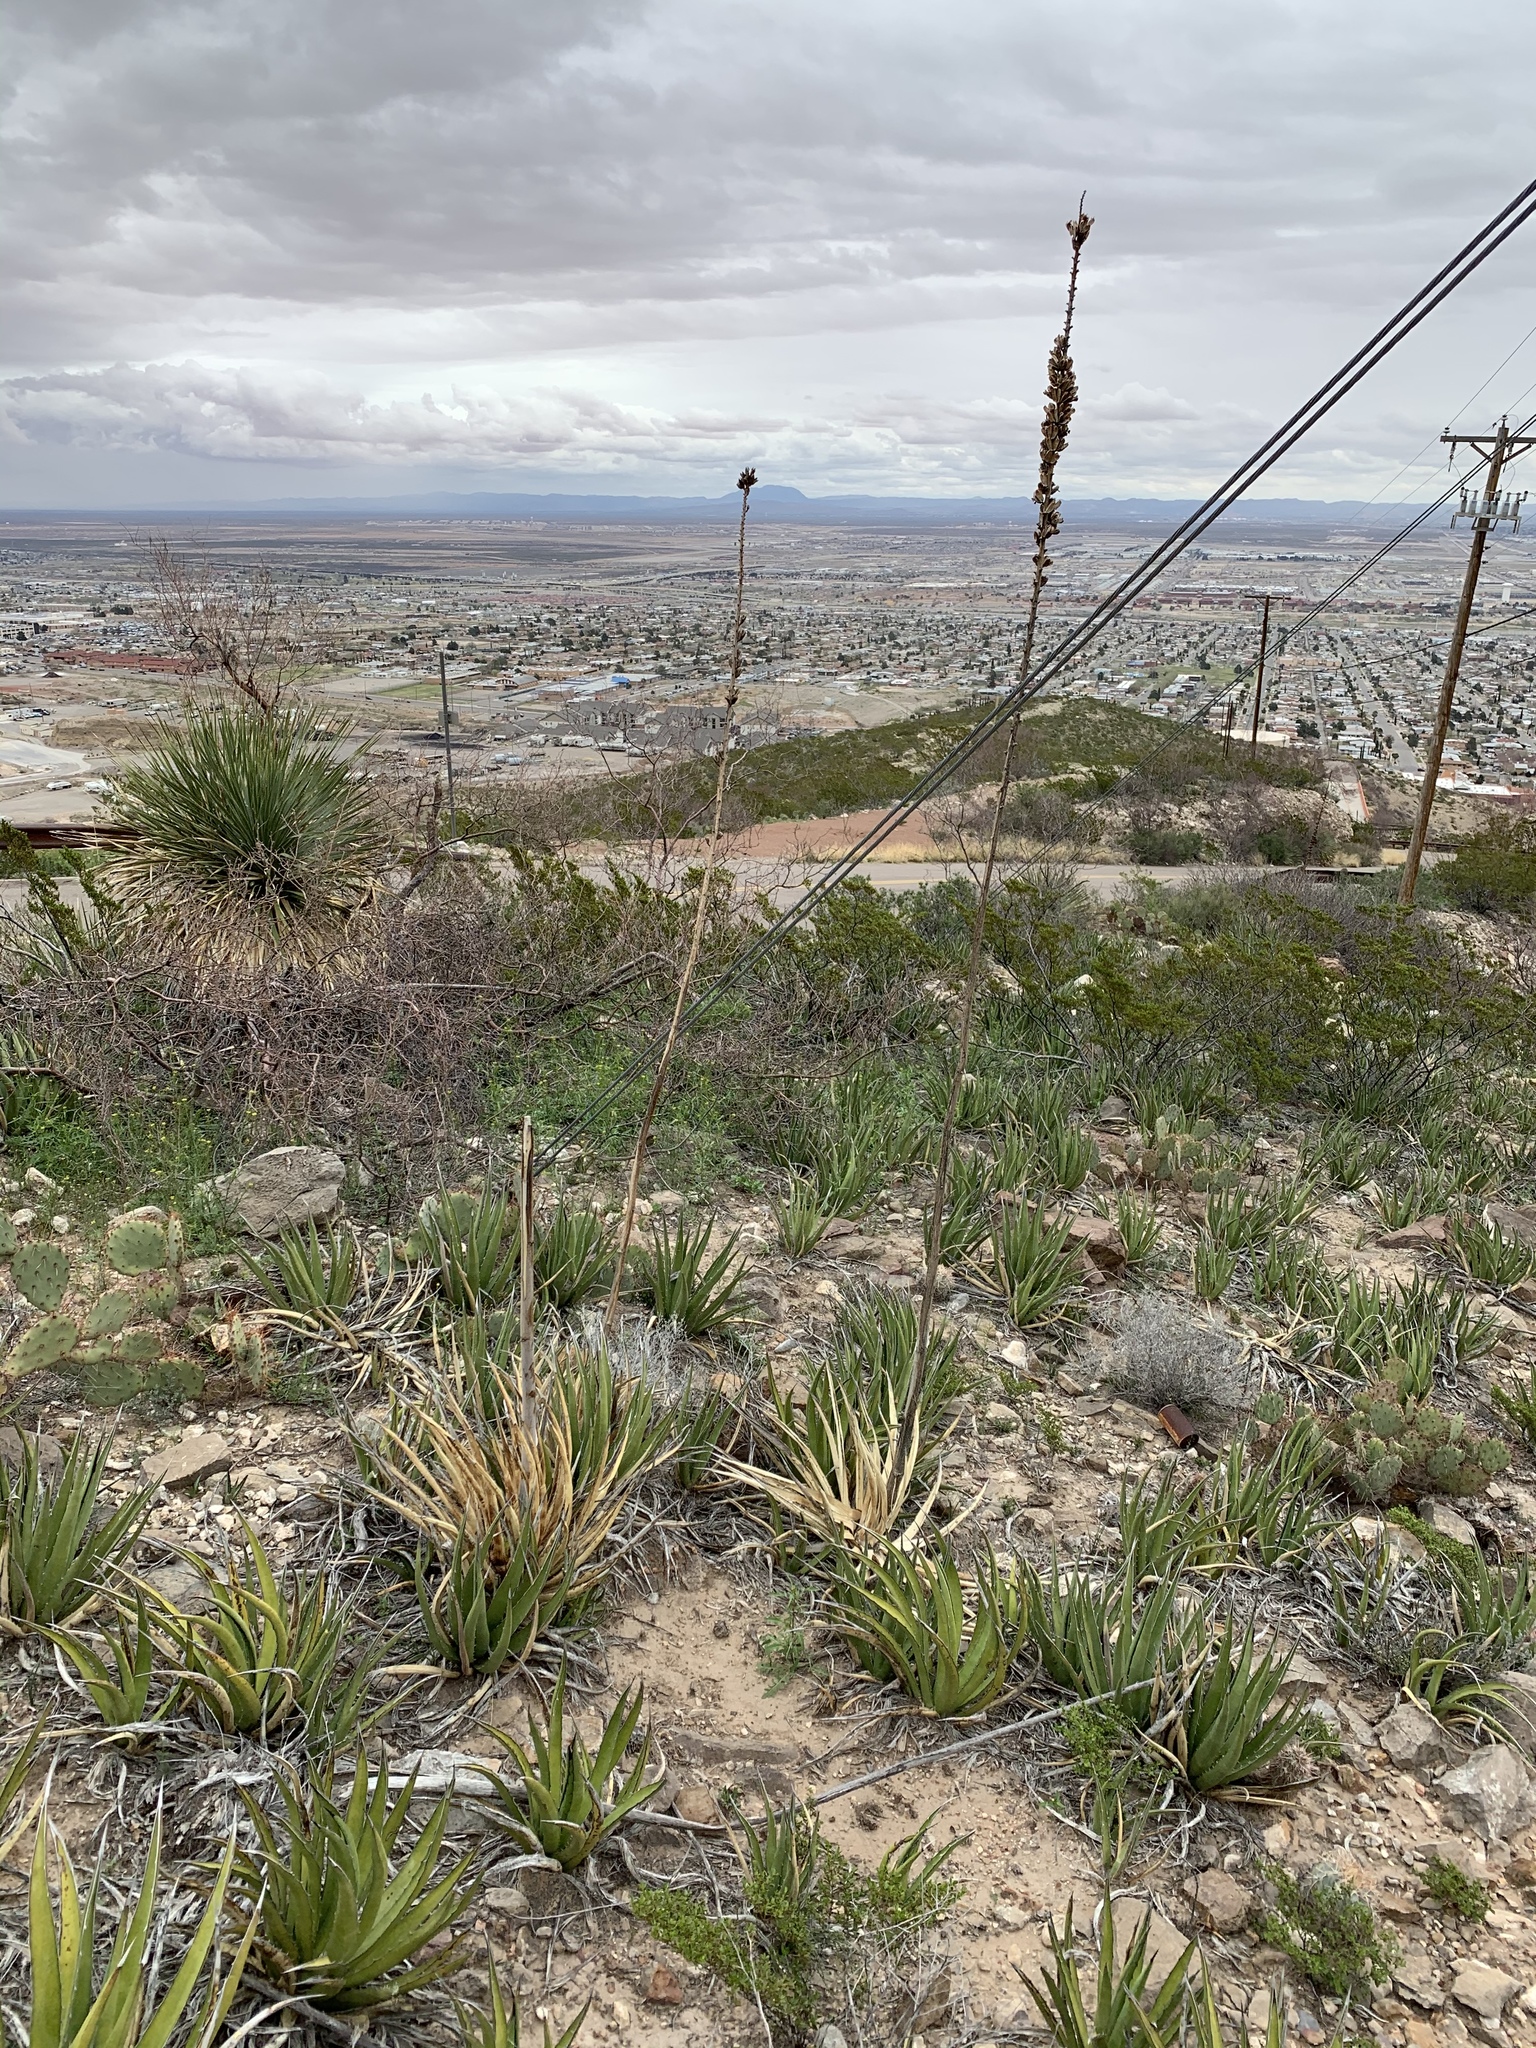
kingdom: Plantae
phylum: Tracheophyta
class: Liliopsida
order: Asparagales
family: Asparagaceae
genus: Agave
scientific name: Agave lechuguilla
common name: Lecheguilla agave
